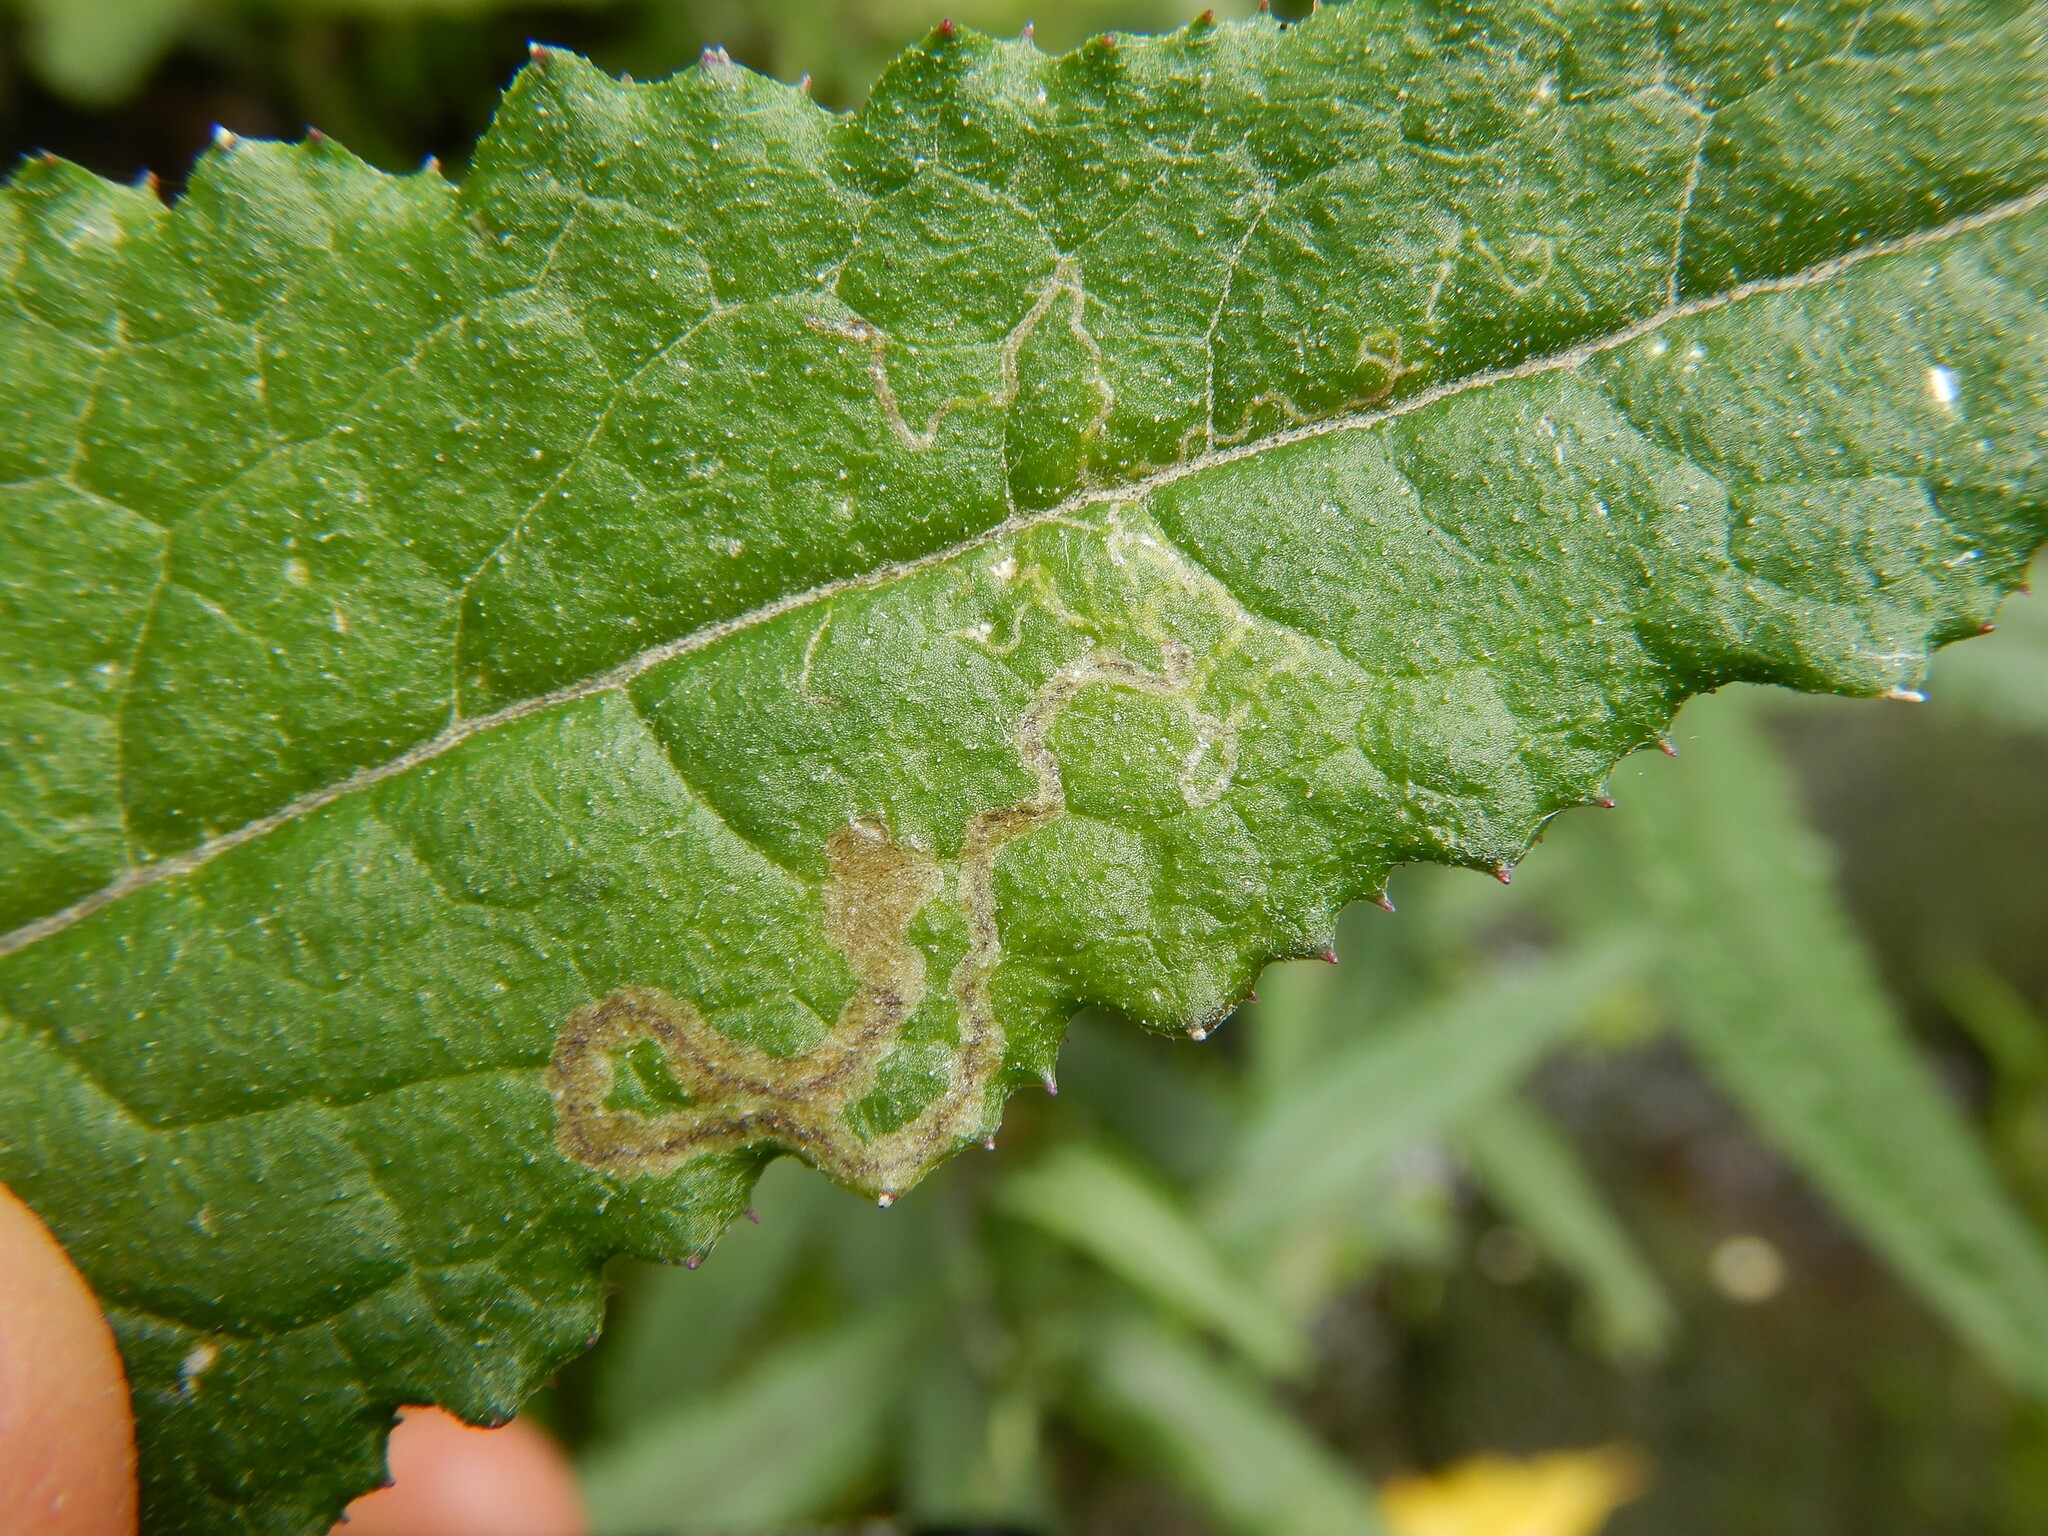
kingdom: Animalia
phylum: Arthropoda
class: Insecta
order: Lepidoptera
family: Nepticulidae
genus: Stigmella
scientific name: Stigmella ogygia
